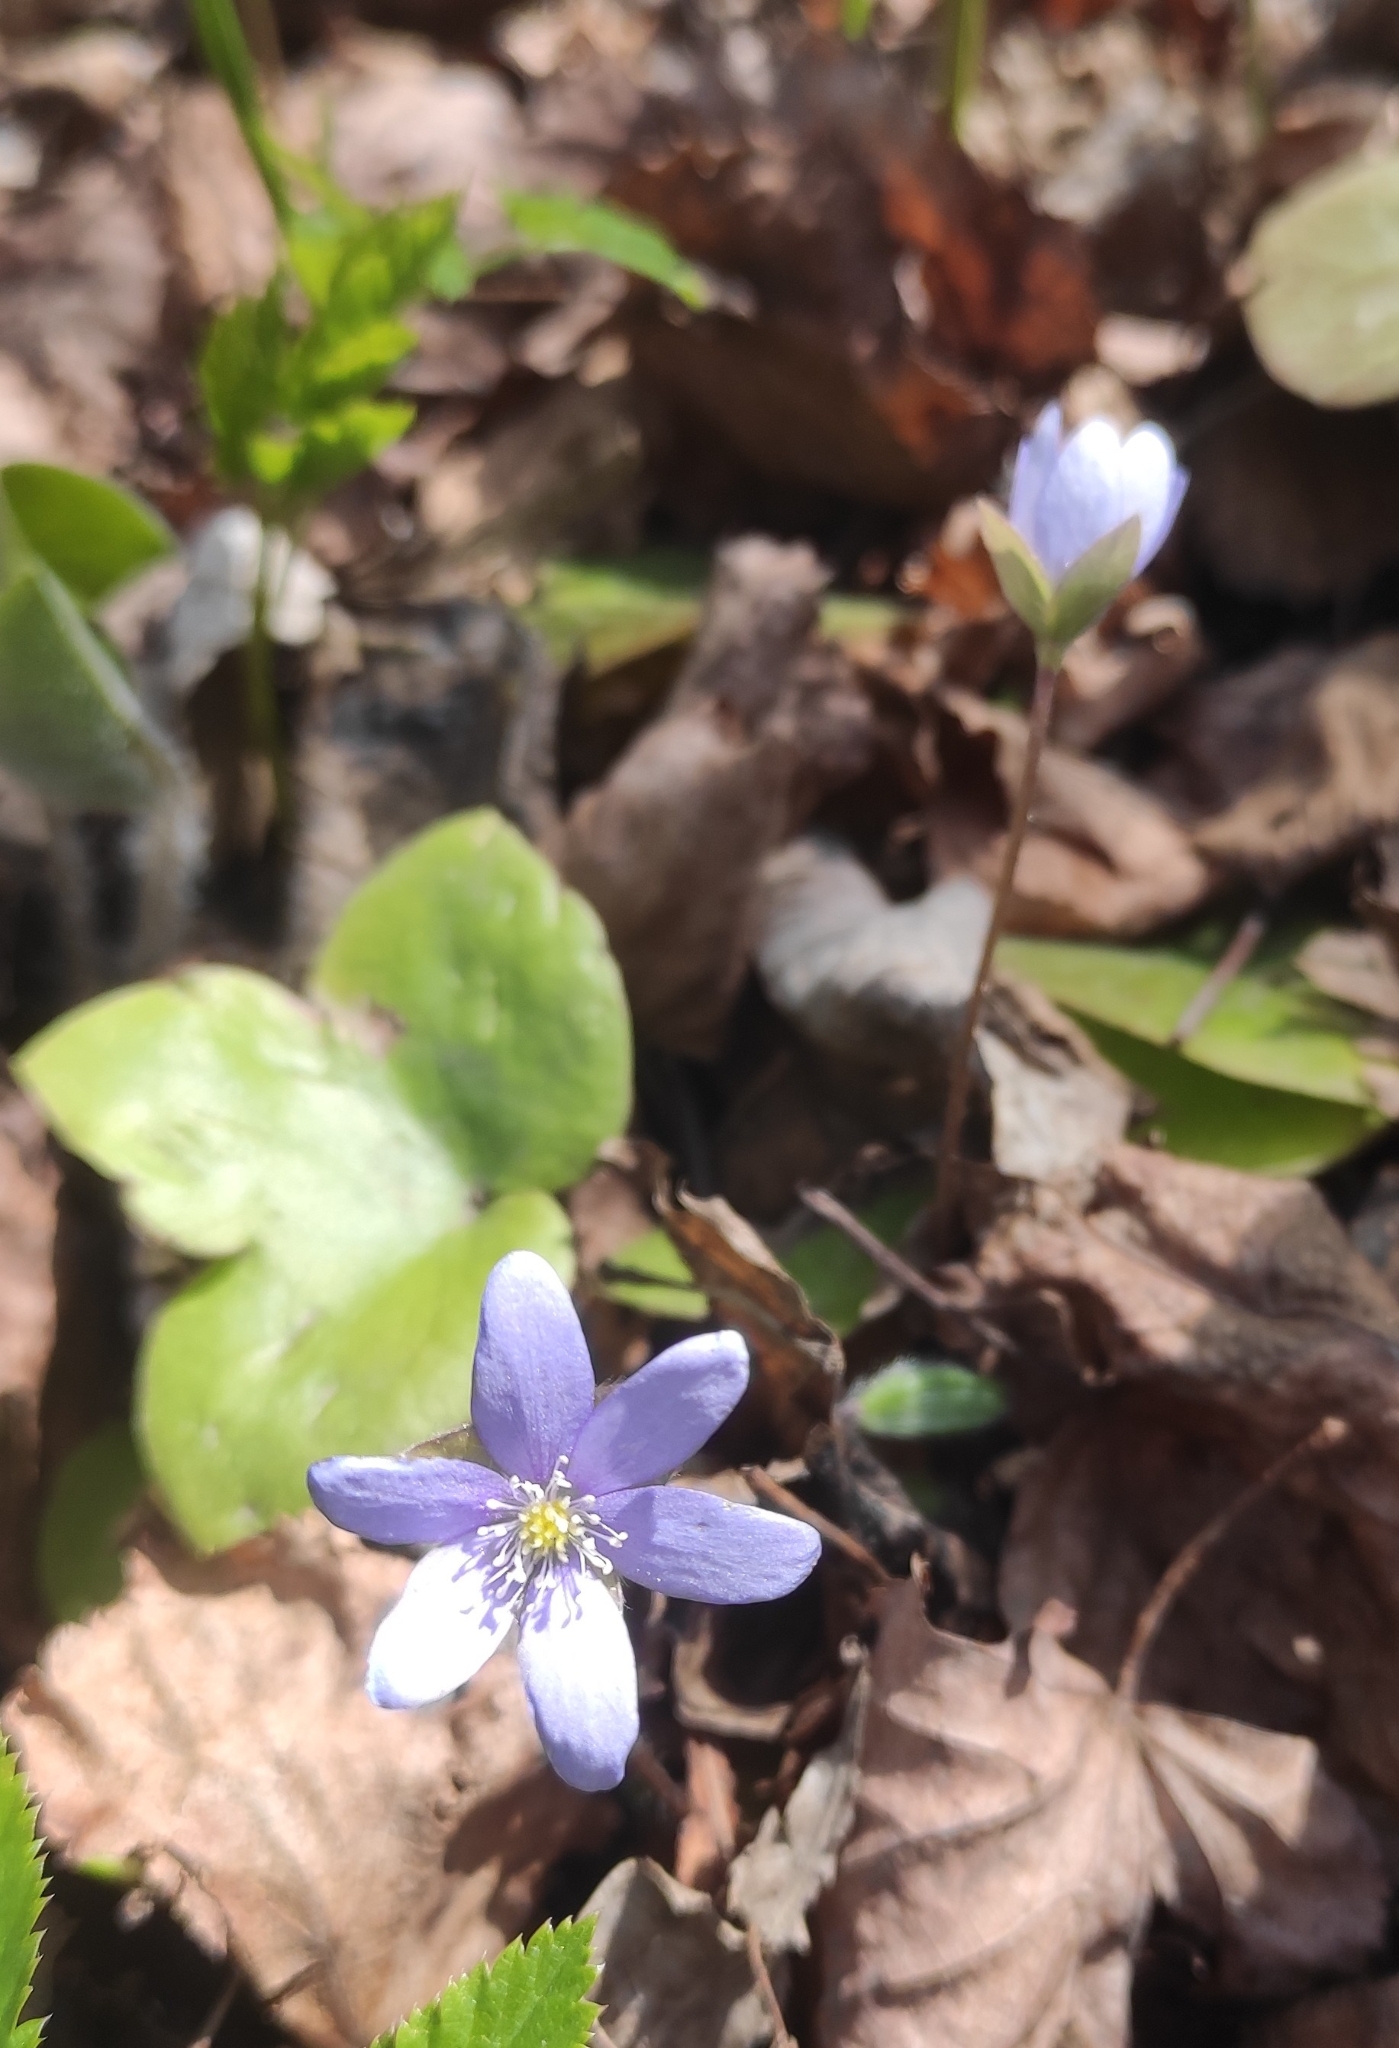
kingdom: Plantae
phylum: Tracheophyta
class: Magnoliopsida
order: Ranunculales
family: Ranunculaceae
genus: Hepatica
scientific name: Hepatica nobilis
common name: Liverleaf
